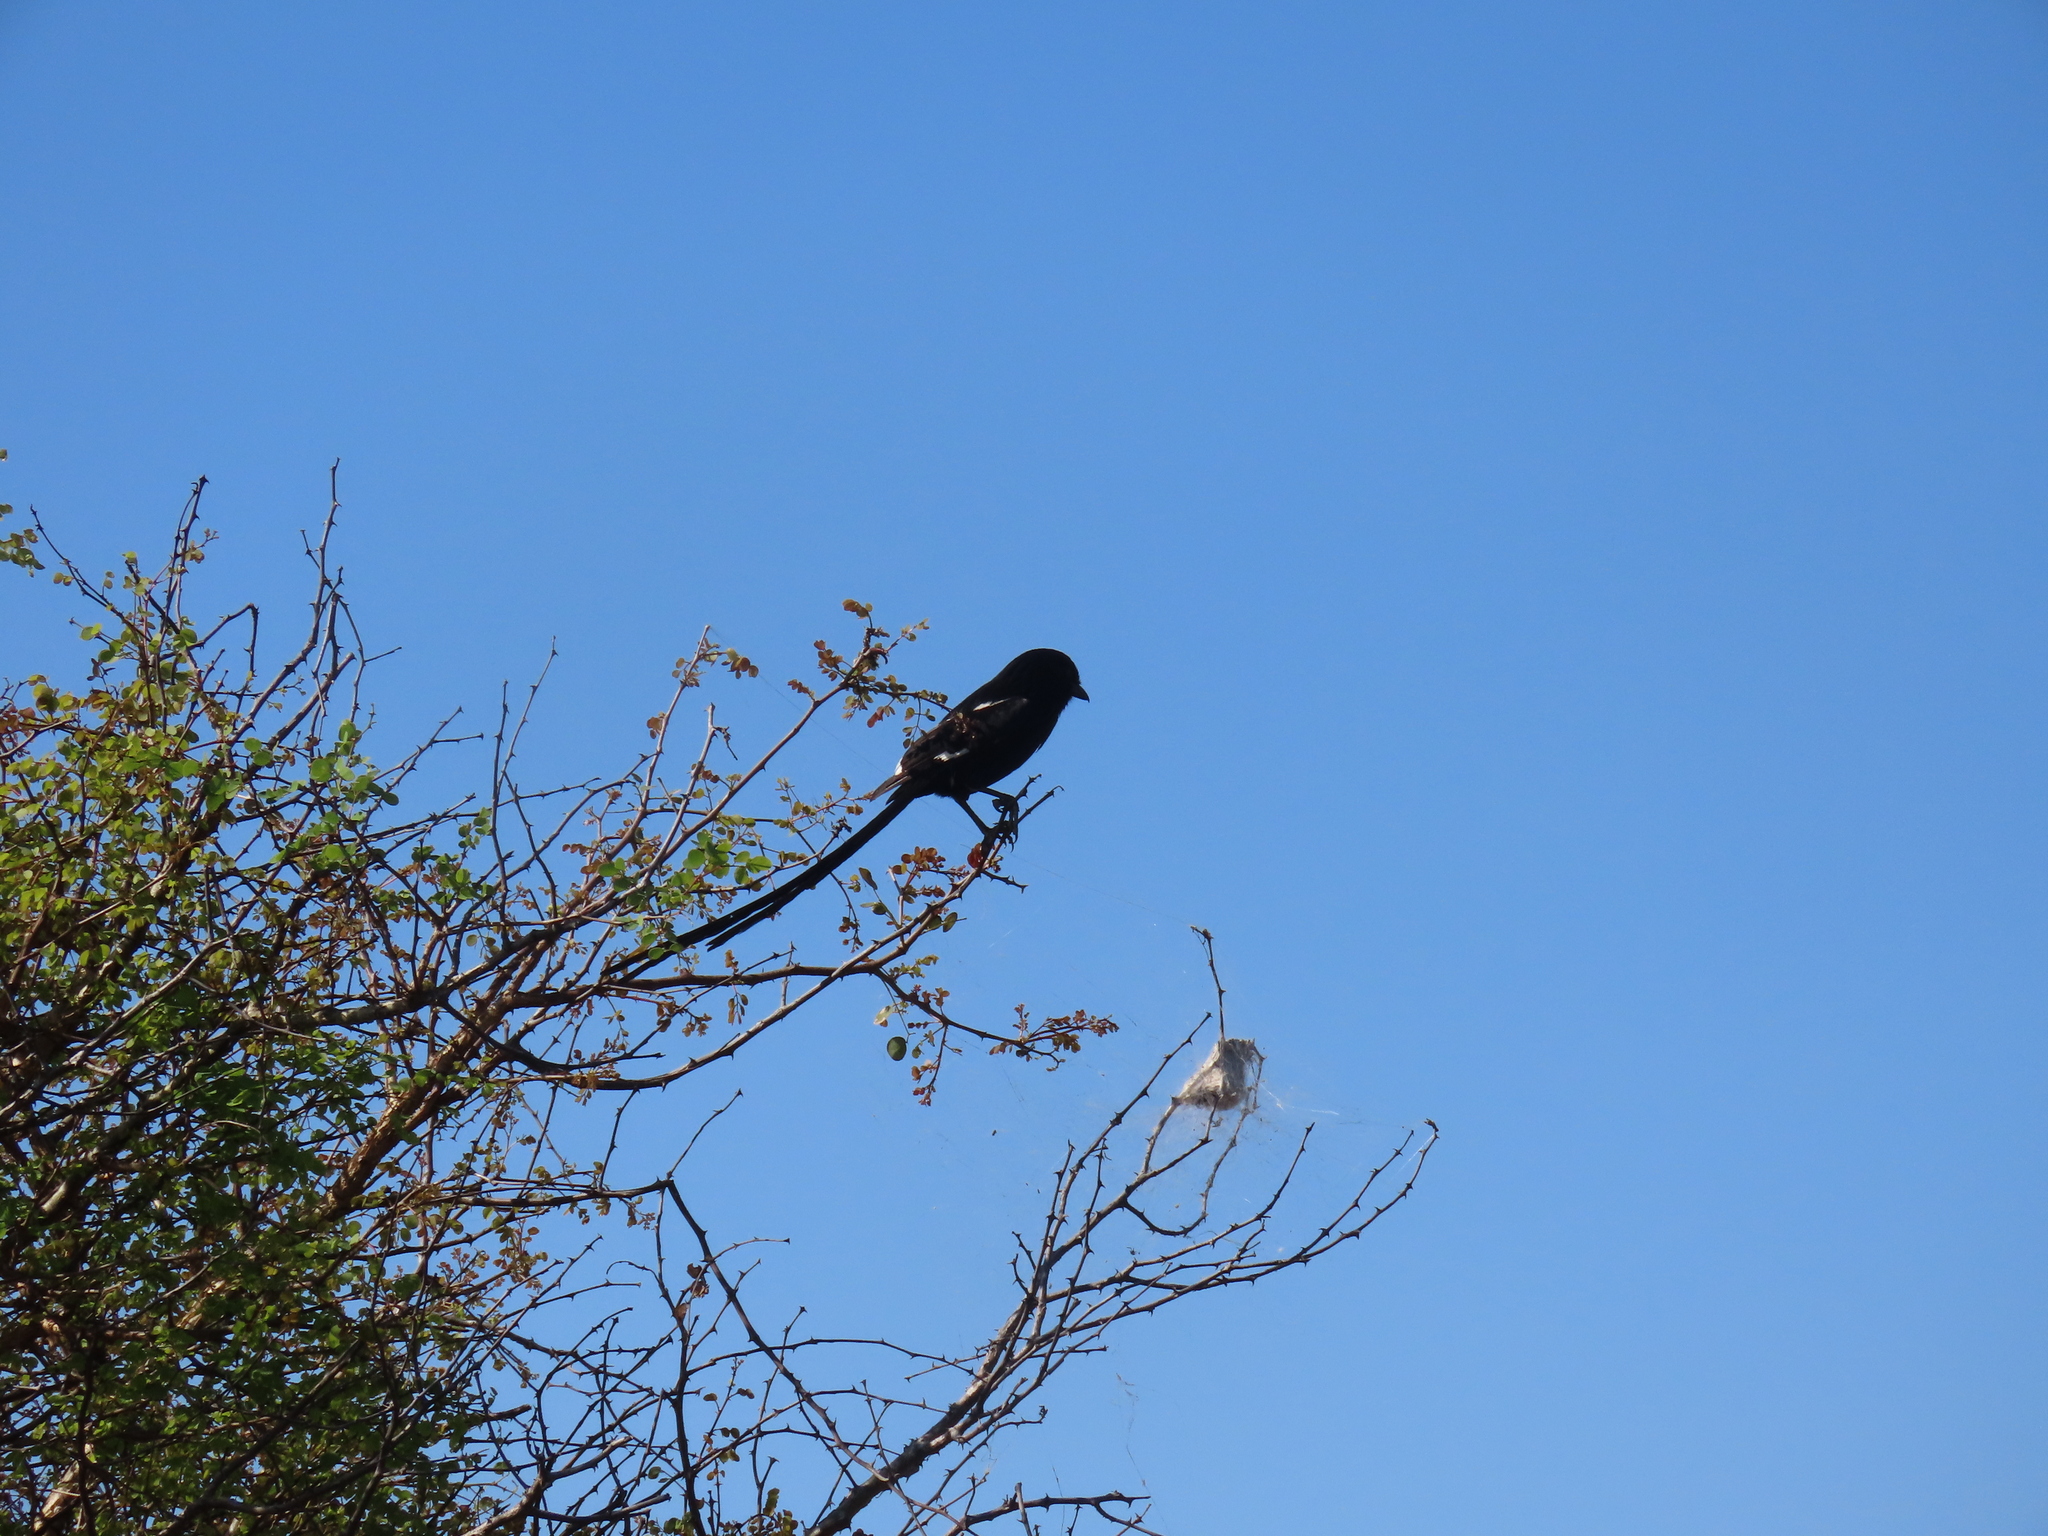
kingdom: Animalia
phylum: Chordata
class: Aves
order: Passeriformes
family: Laniidae
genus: Urolestes
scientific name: Urolestes melanoleucus
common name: Magpie shrike
